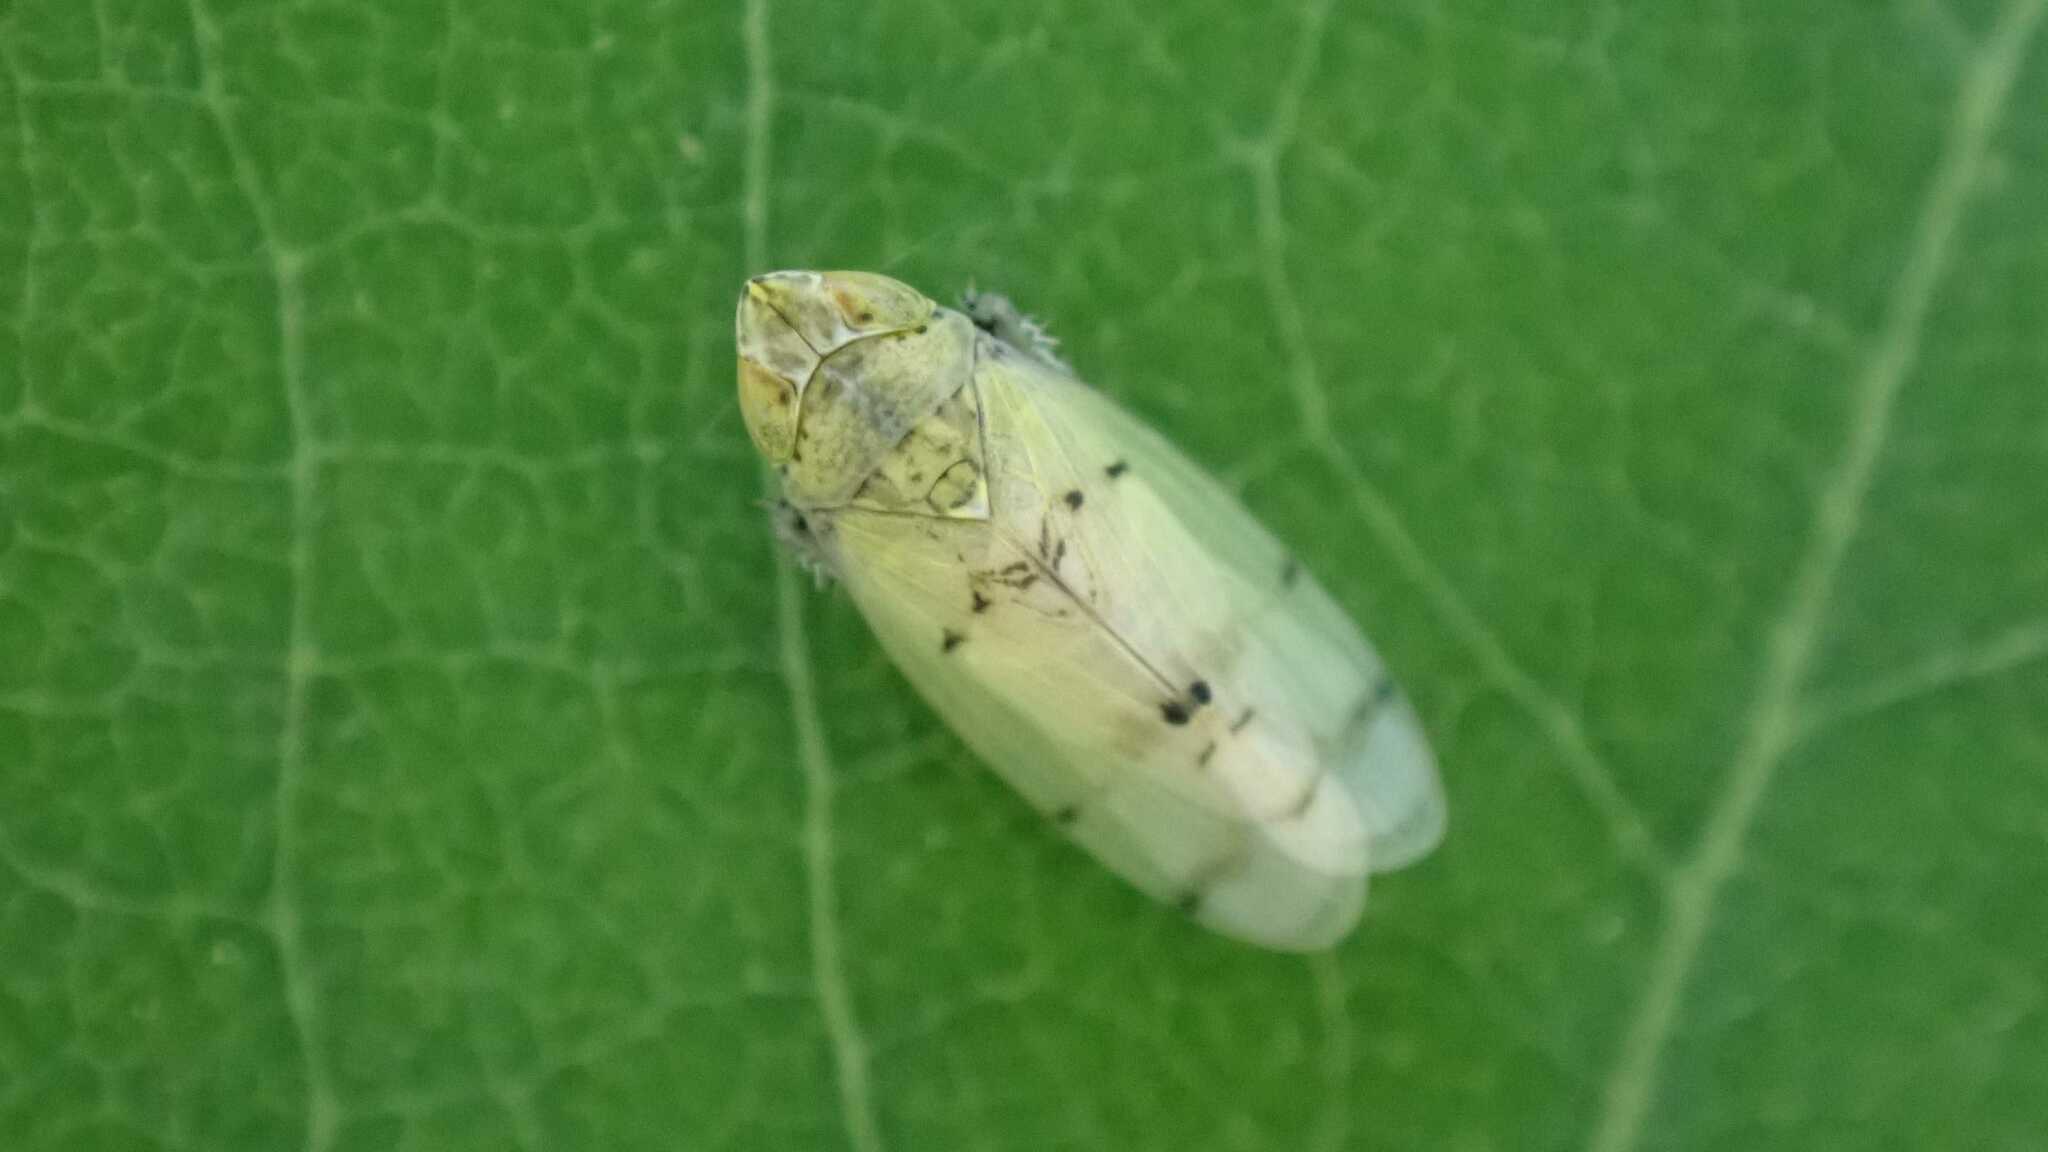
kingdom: Animalia
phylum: Arthropoda
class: Insecta
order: Hemiptera
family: Cicadellidae
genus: Japananus
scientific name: Japananus hyalinus
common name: The japanese maple leafhopper
